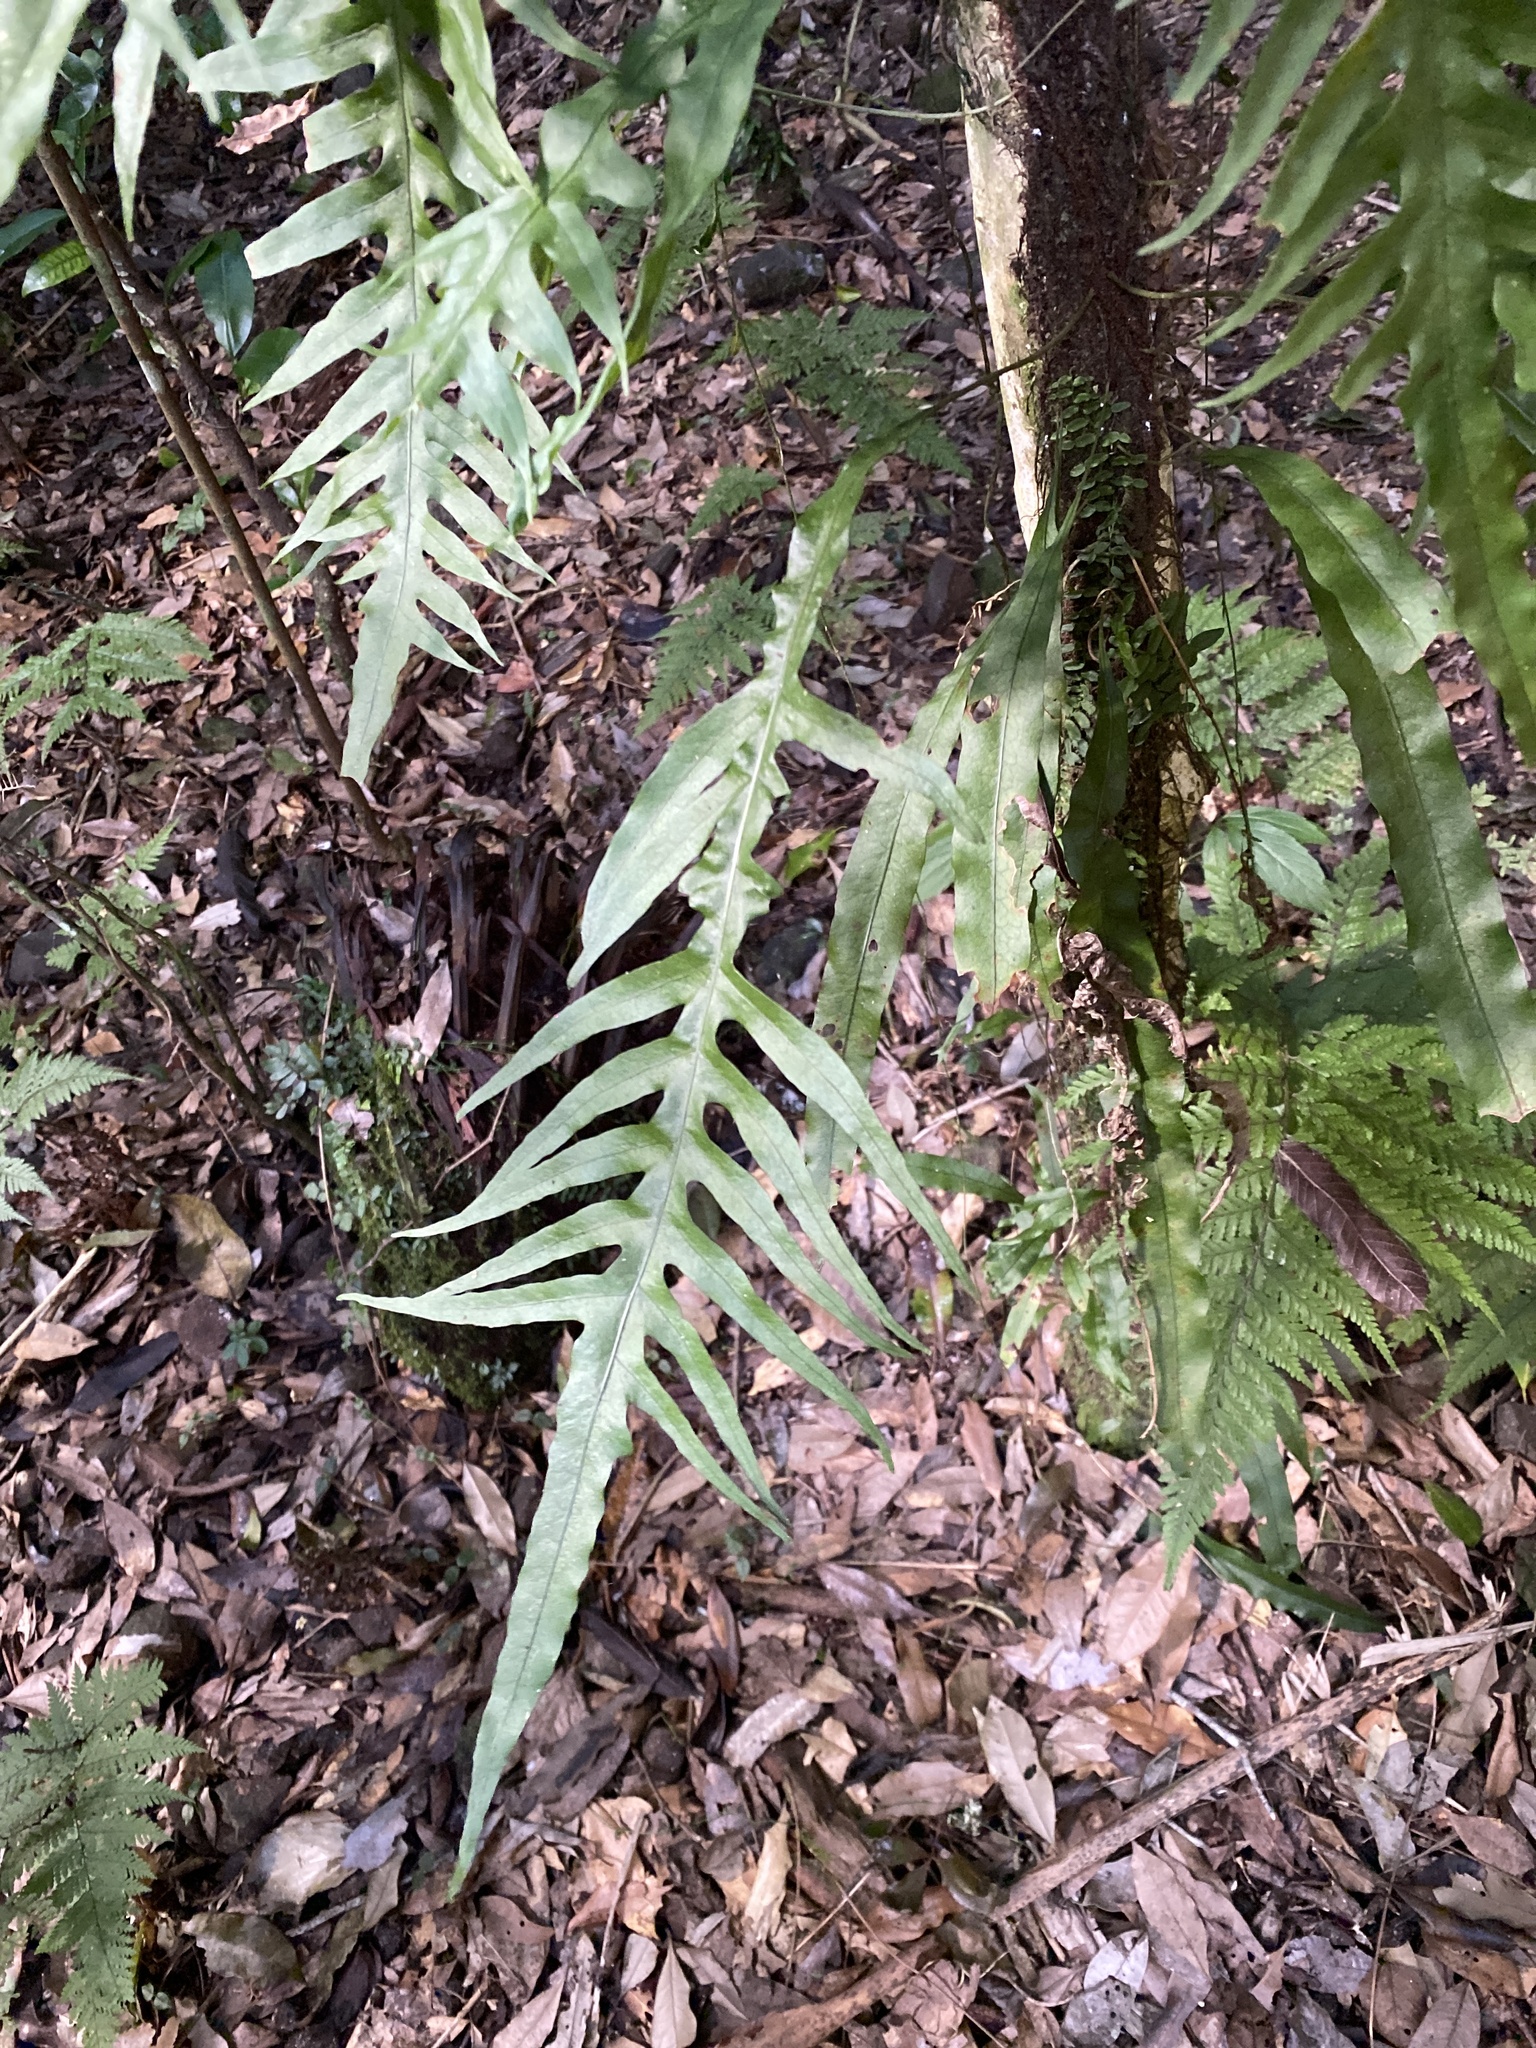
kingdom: Plantae
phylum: Tracheophyta
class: Polypodiopsida
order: Polypodiales
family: Polypodiaceae
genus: Lecanopteris
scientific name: Lecanopteris scandens
